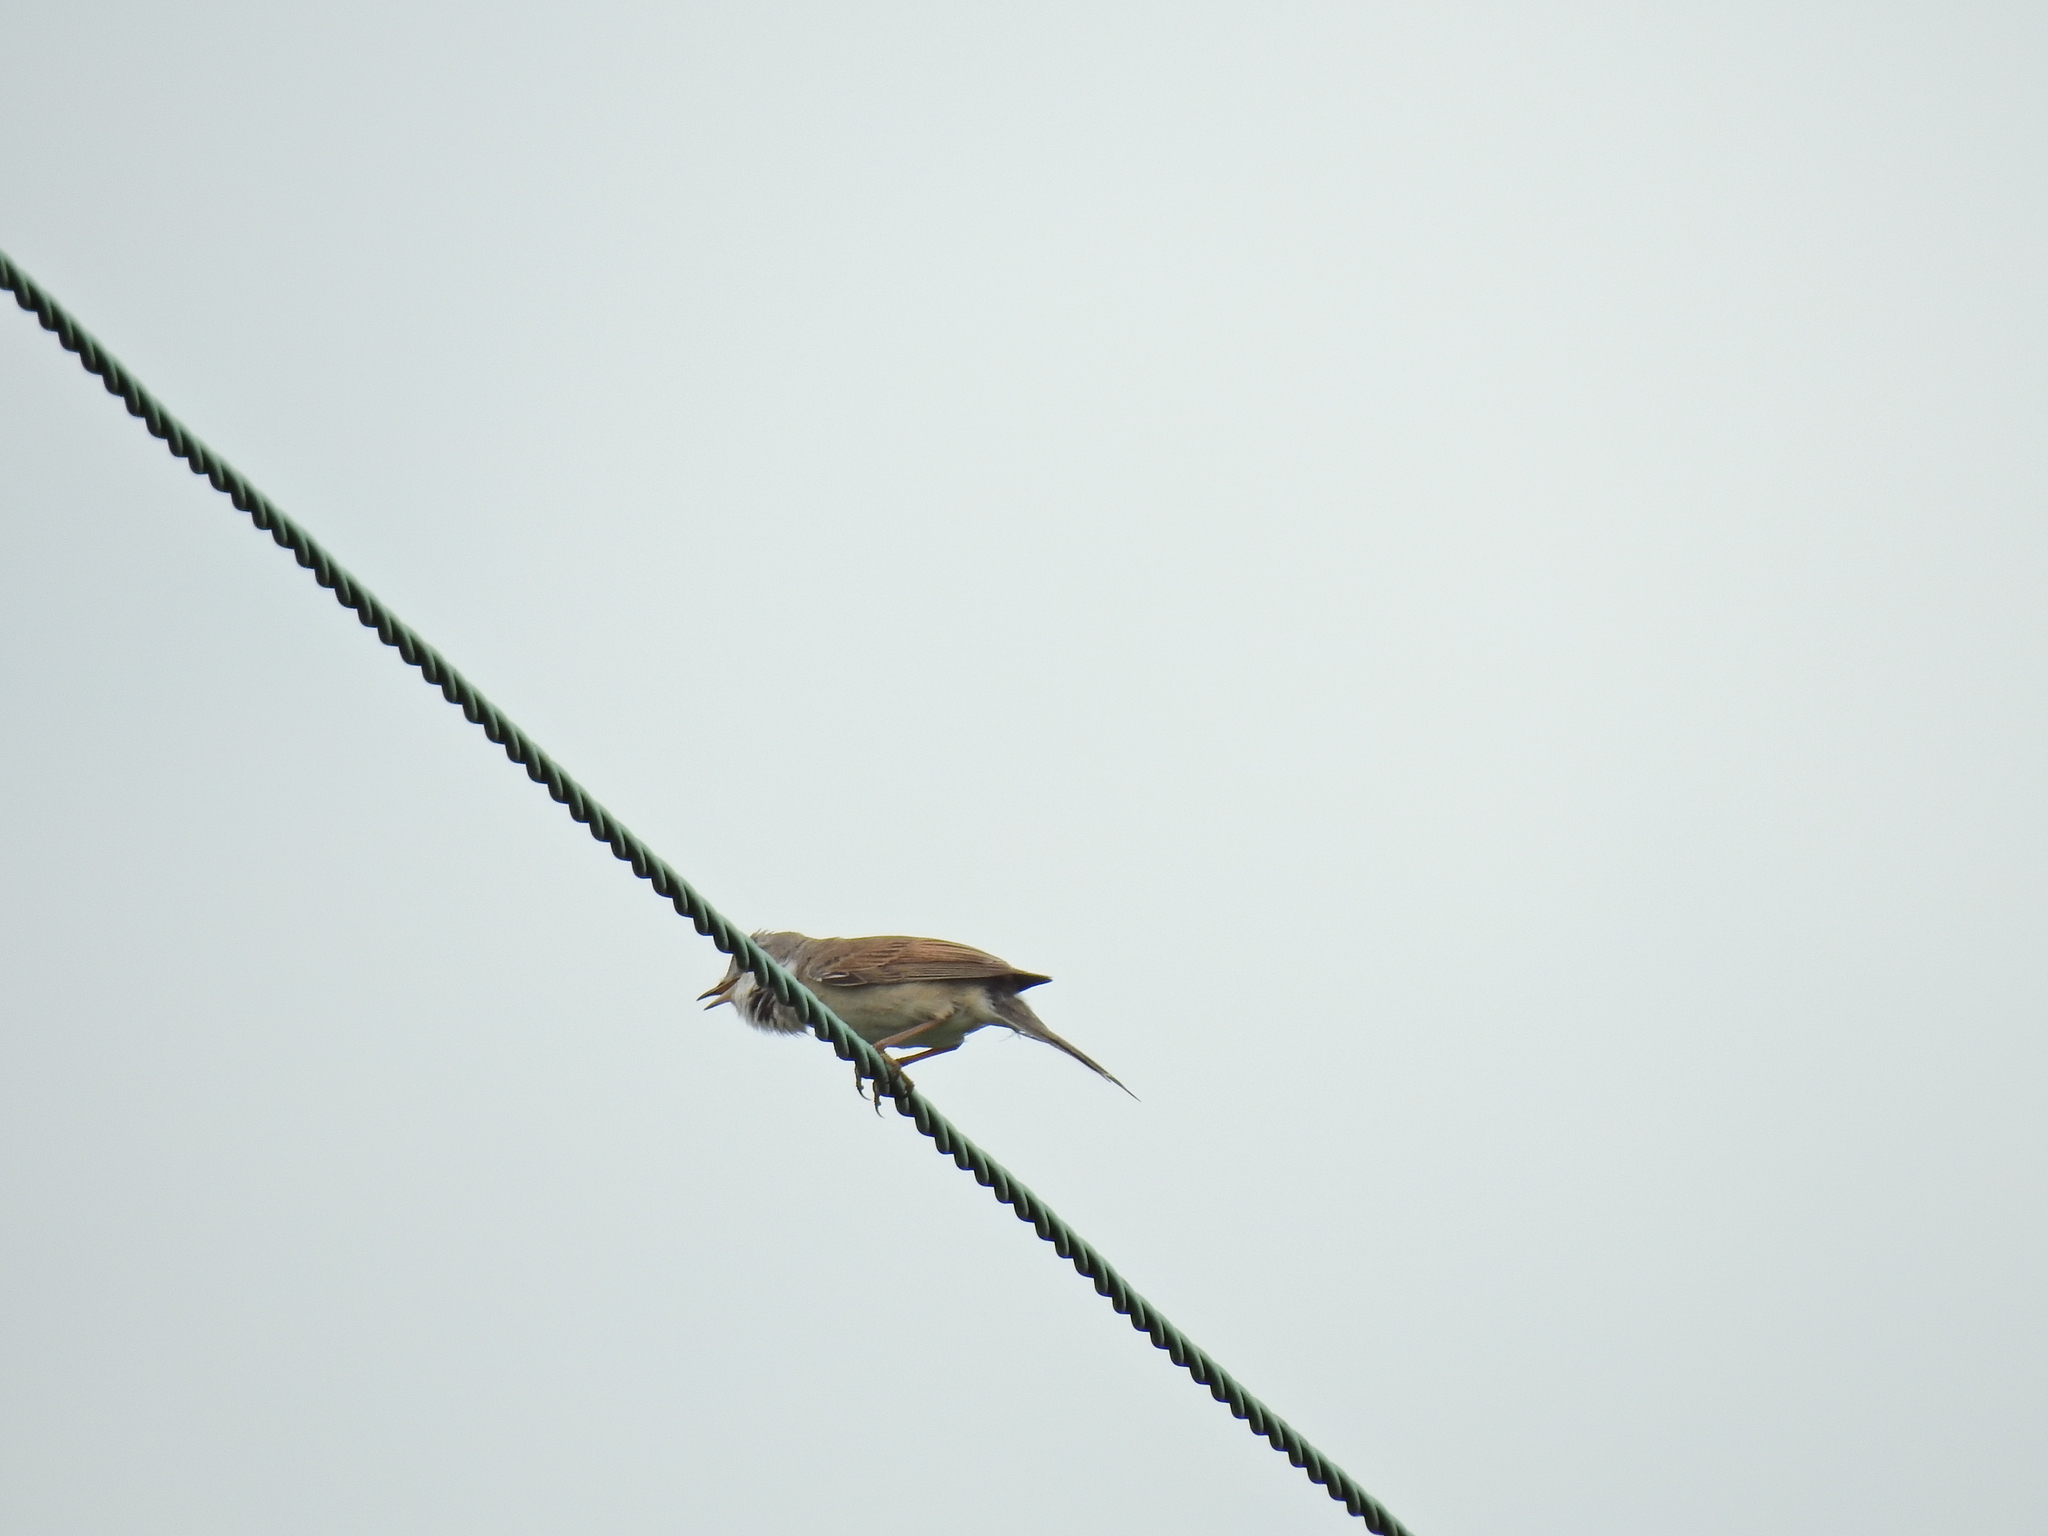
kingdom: Animalia
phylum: Chordata
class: Aves
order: Passeriformes
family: Sylviidae
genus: Sylvia
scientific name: Sylvia communis
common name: Common whitethroat
